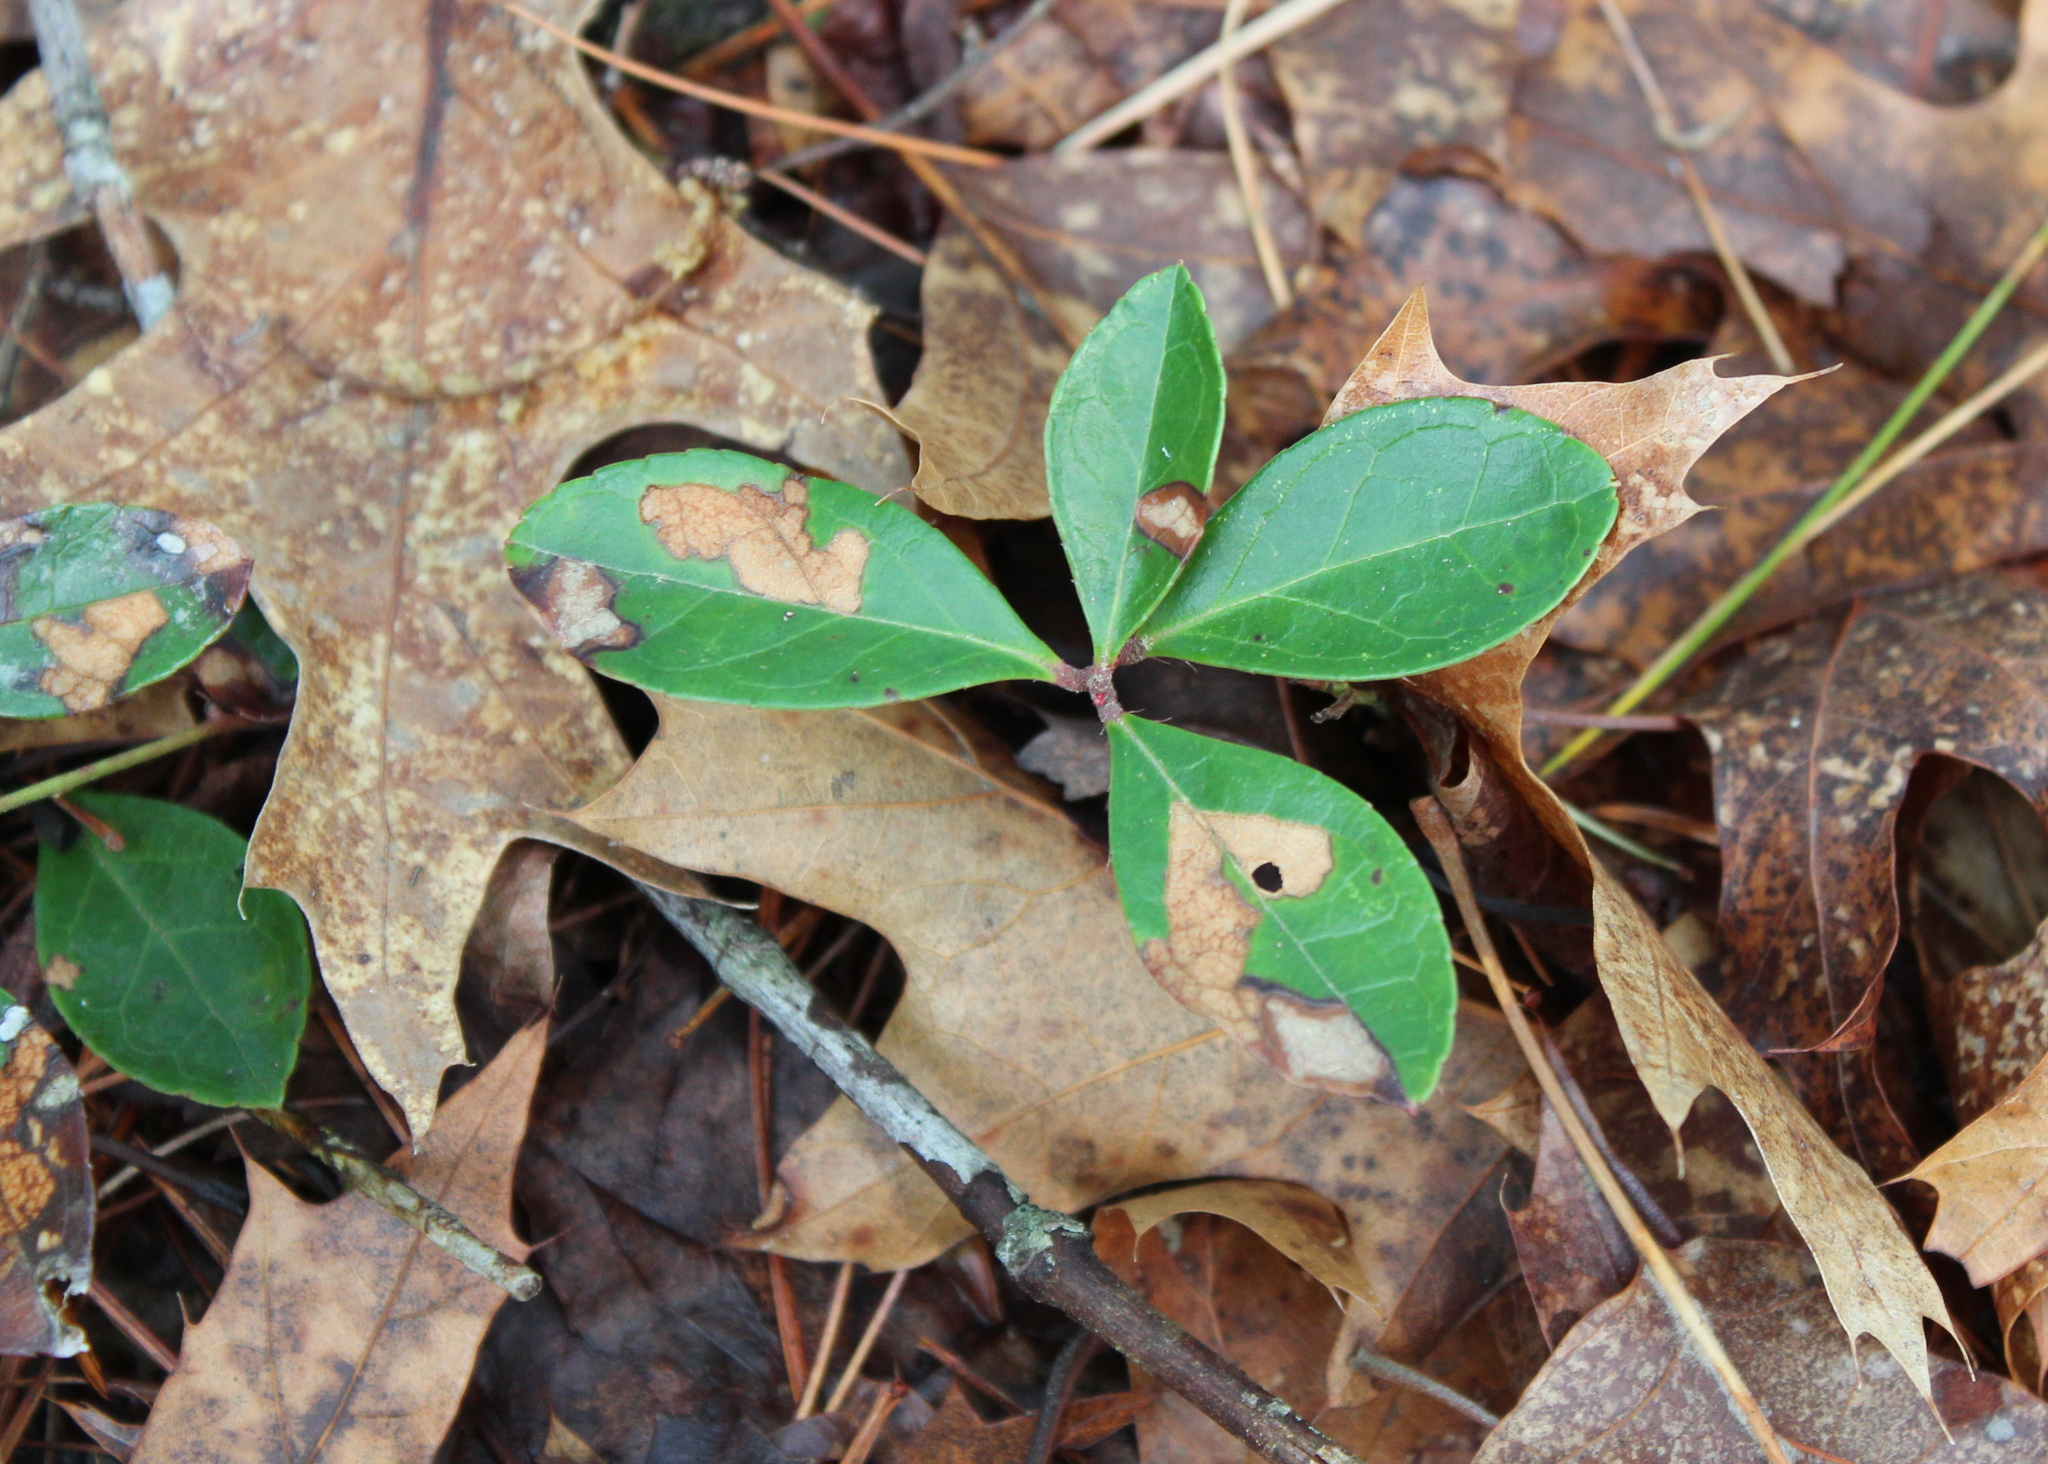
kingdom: Plantae
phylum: Tracheophyta
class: Magnoliopsida
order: Ericales
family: Ericaceae
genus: Gaultheria
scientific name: Gaultheria procumbens
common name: Checkerberry
